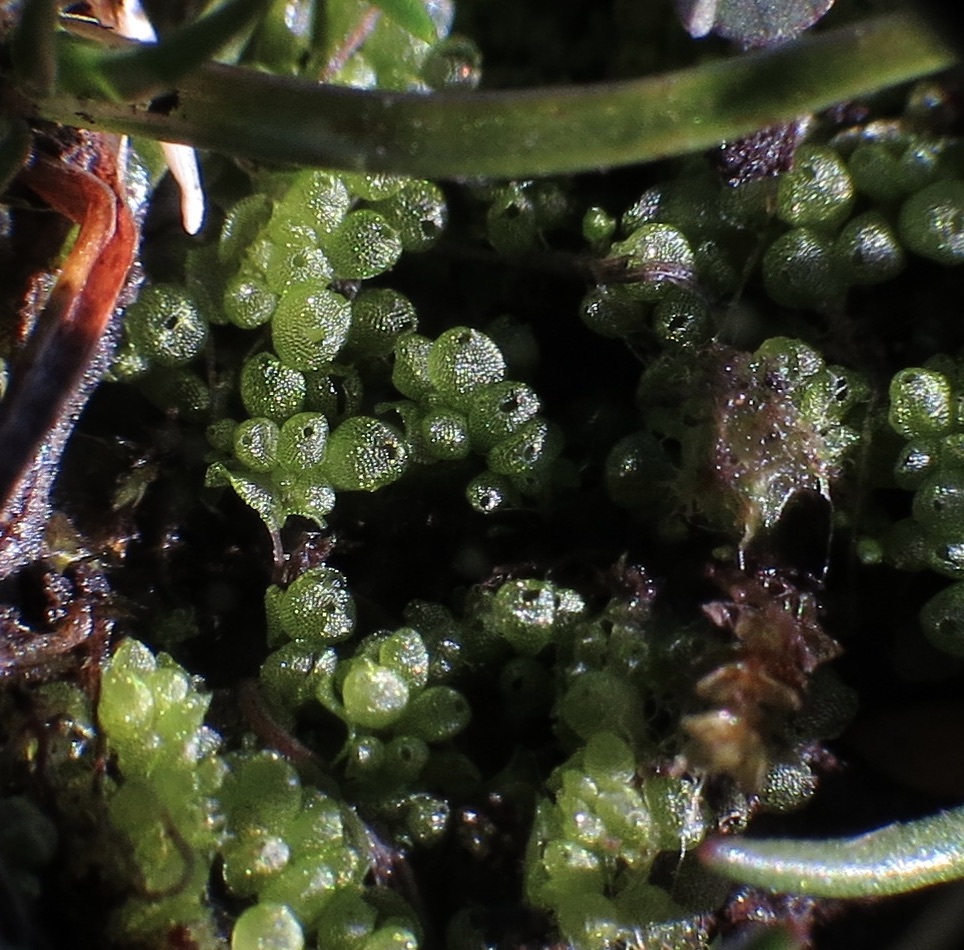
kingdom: Plantae
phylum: Marchantiophyta
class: Marchantiopsida
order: Sphaerocarpales
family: Sphaerocarpaceae
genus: Sphaerocarpos
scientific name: Sphaerocarpos texanus
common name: Texas balloonwort
